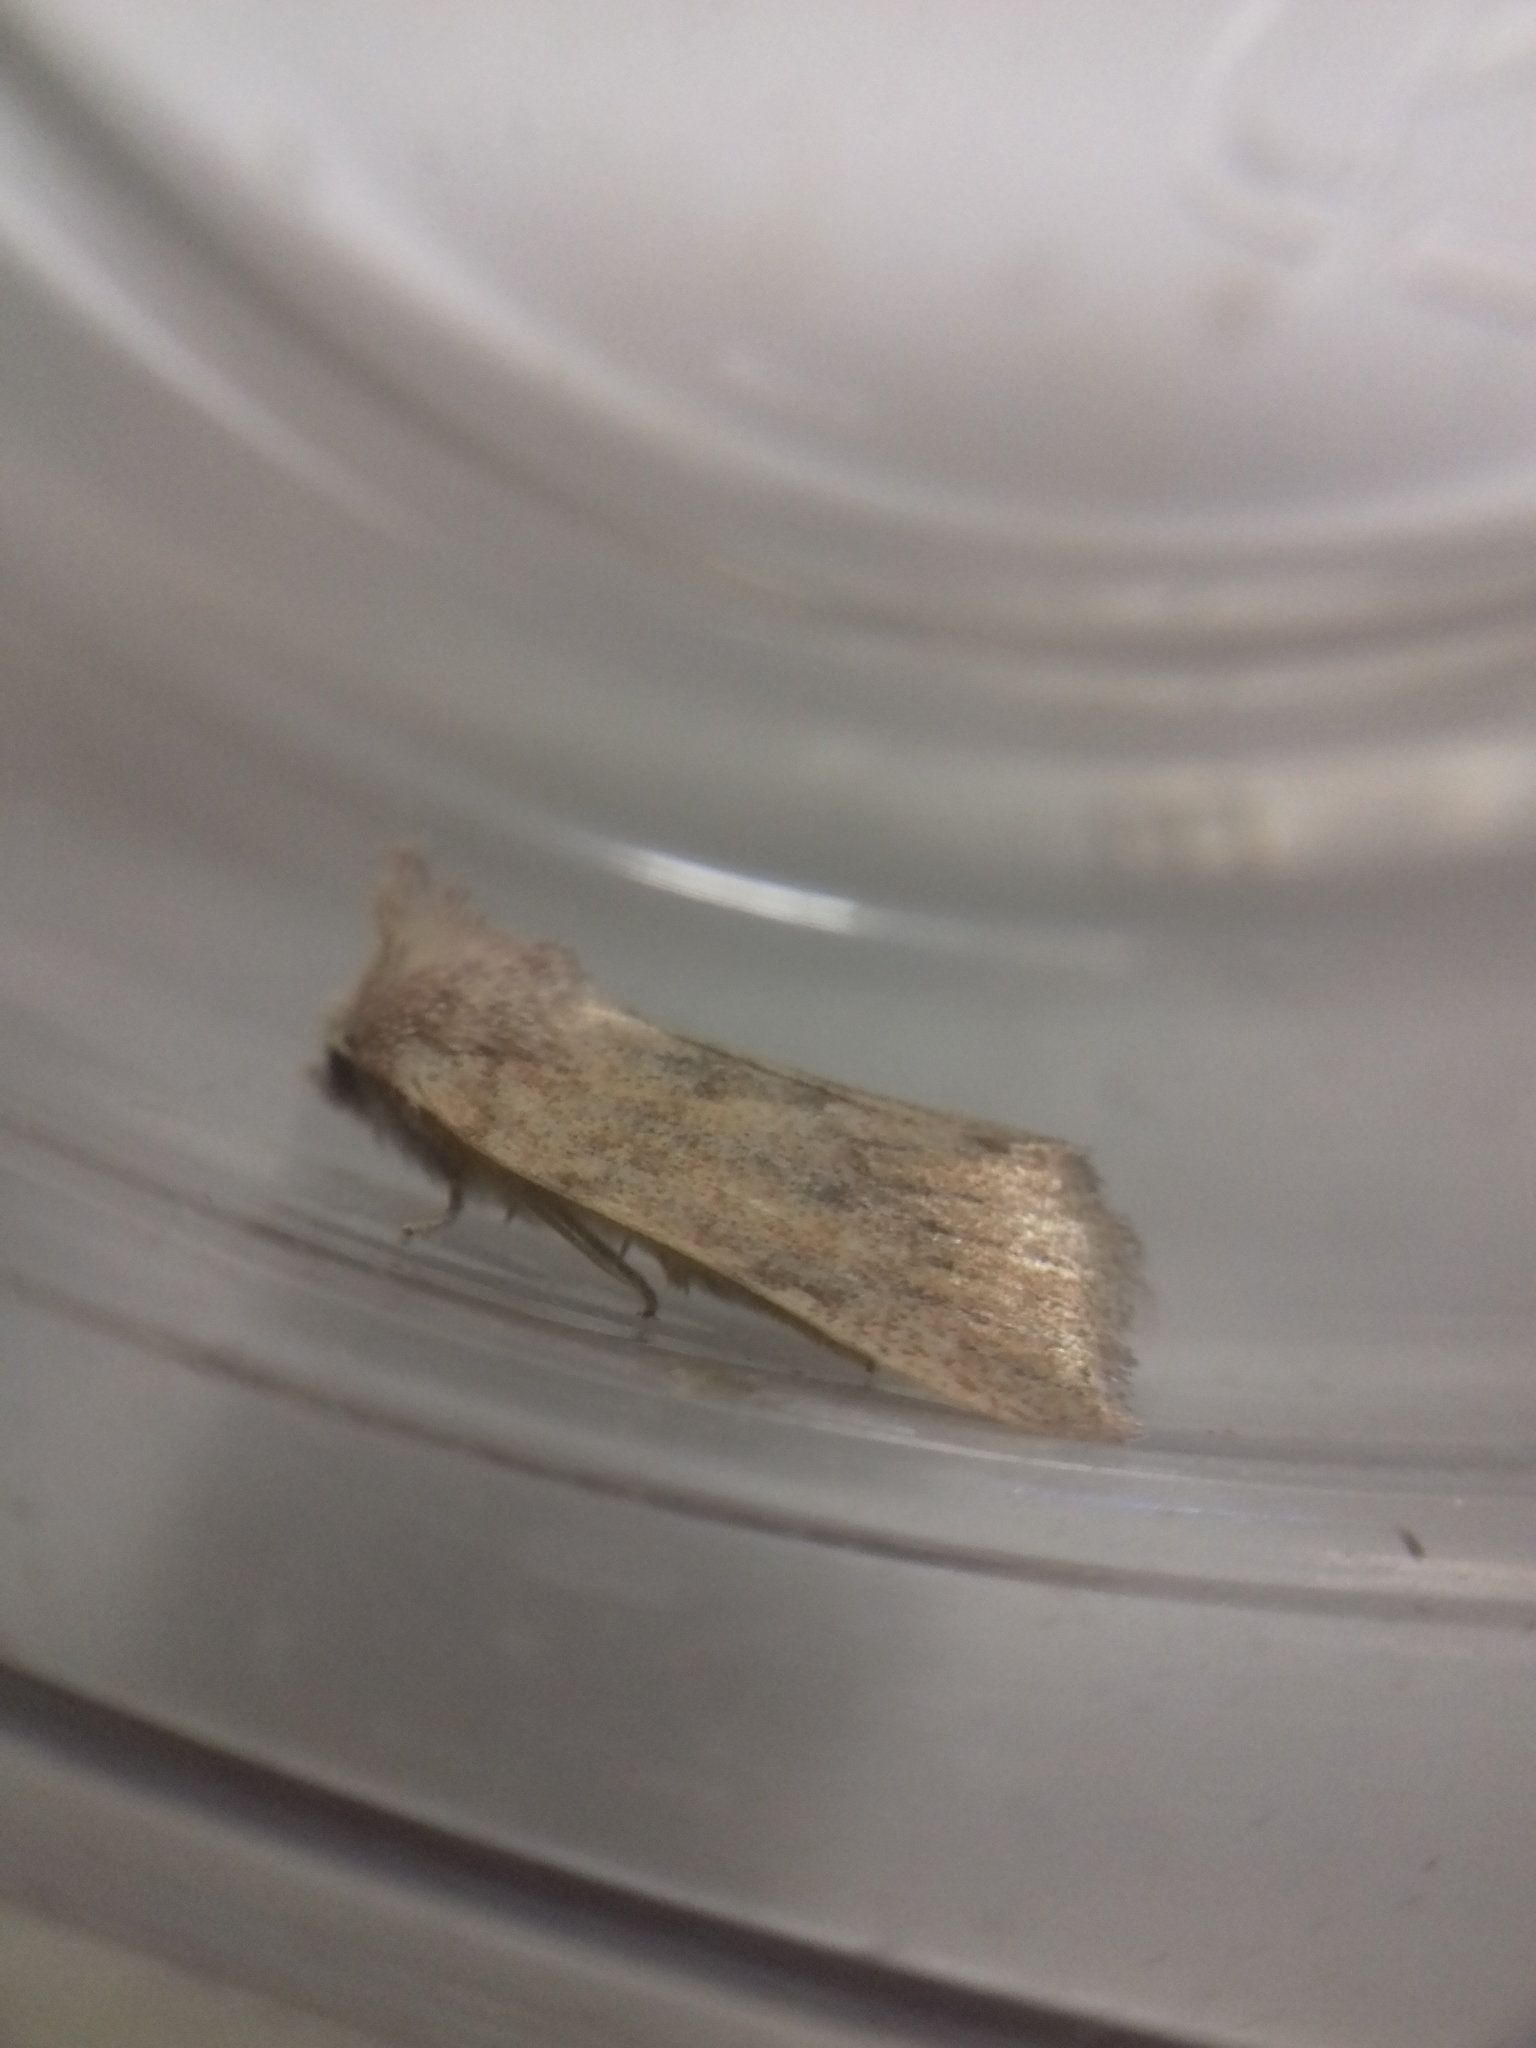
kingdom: Animalia
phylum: Arthropoda
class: Insecta
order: Lepidoptera
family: Noctuidae
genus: Photedes
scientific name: Photedes fluxa
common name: Mere wainscot
